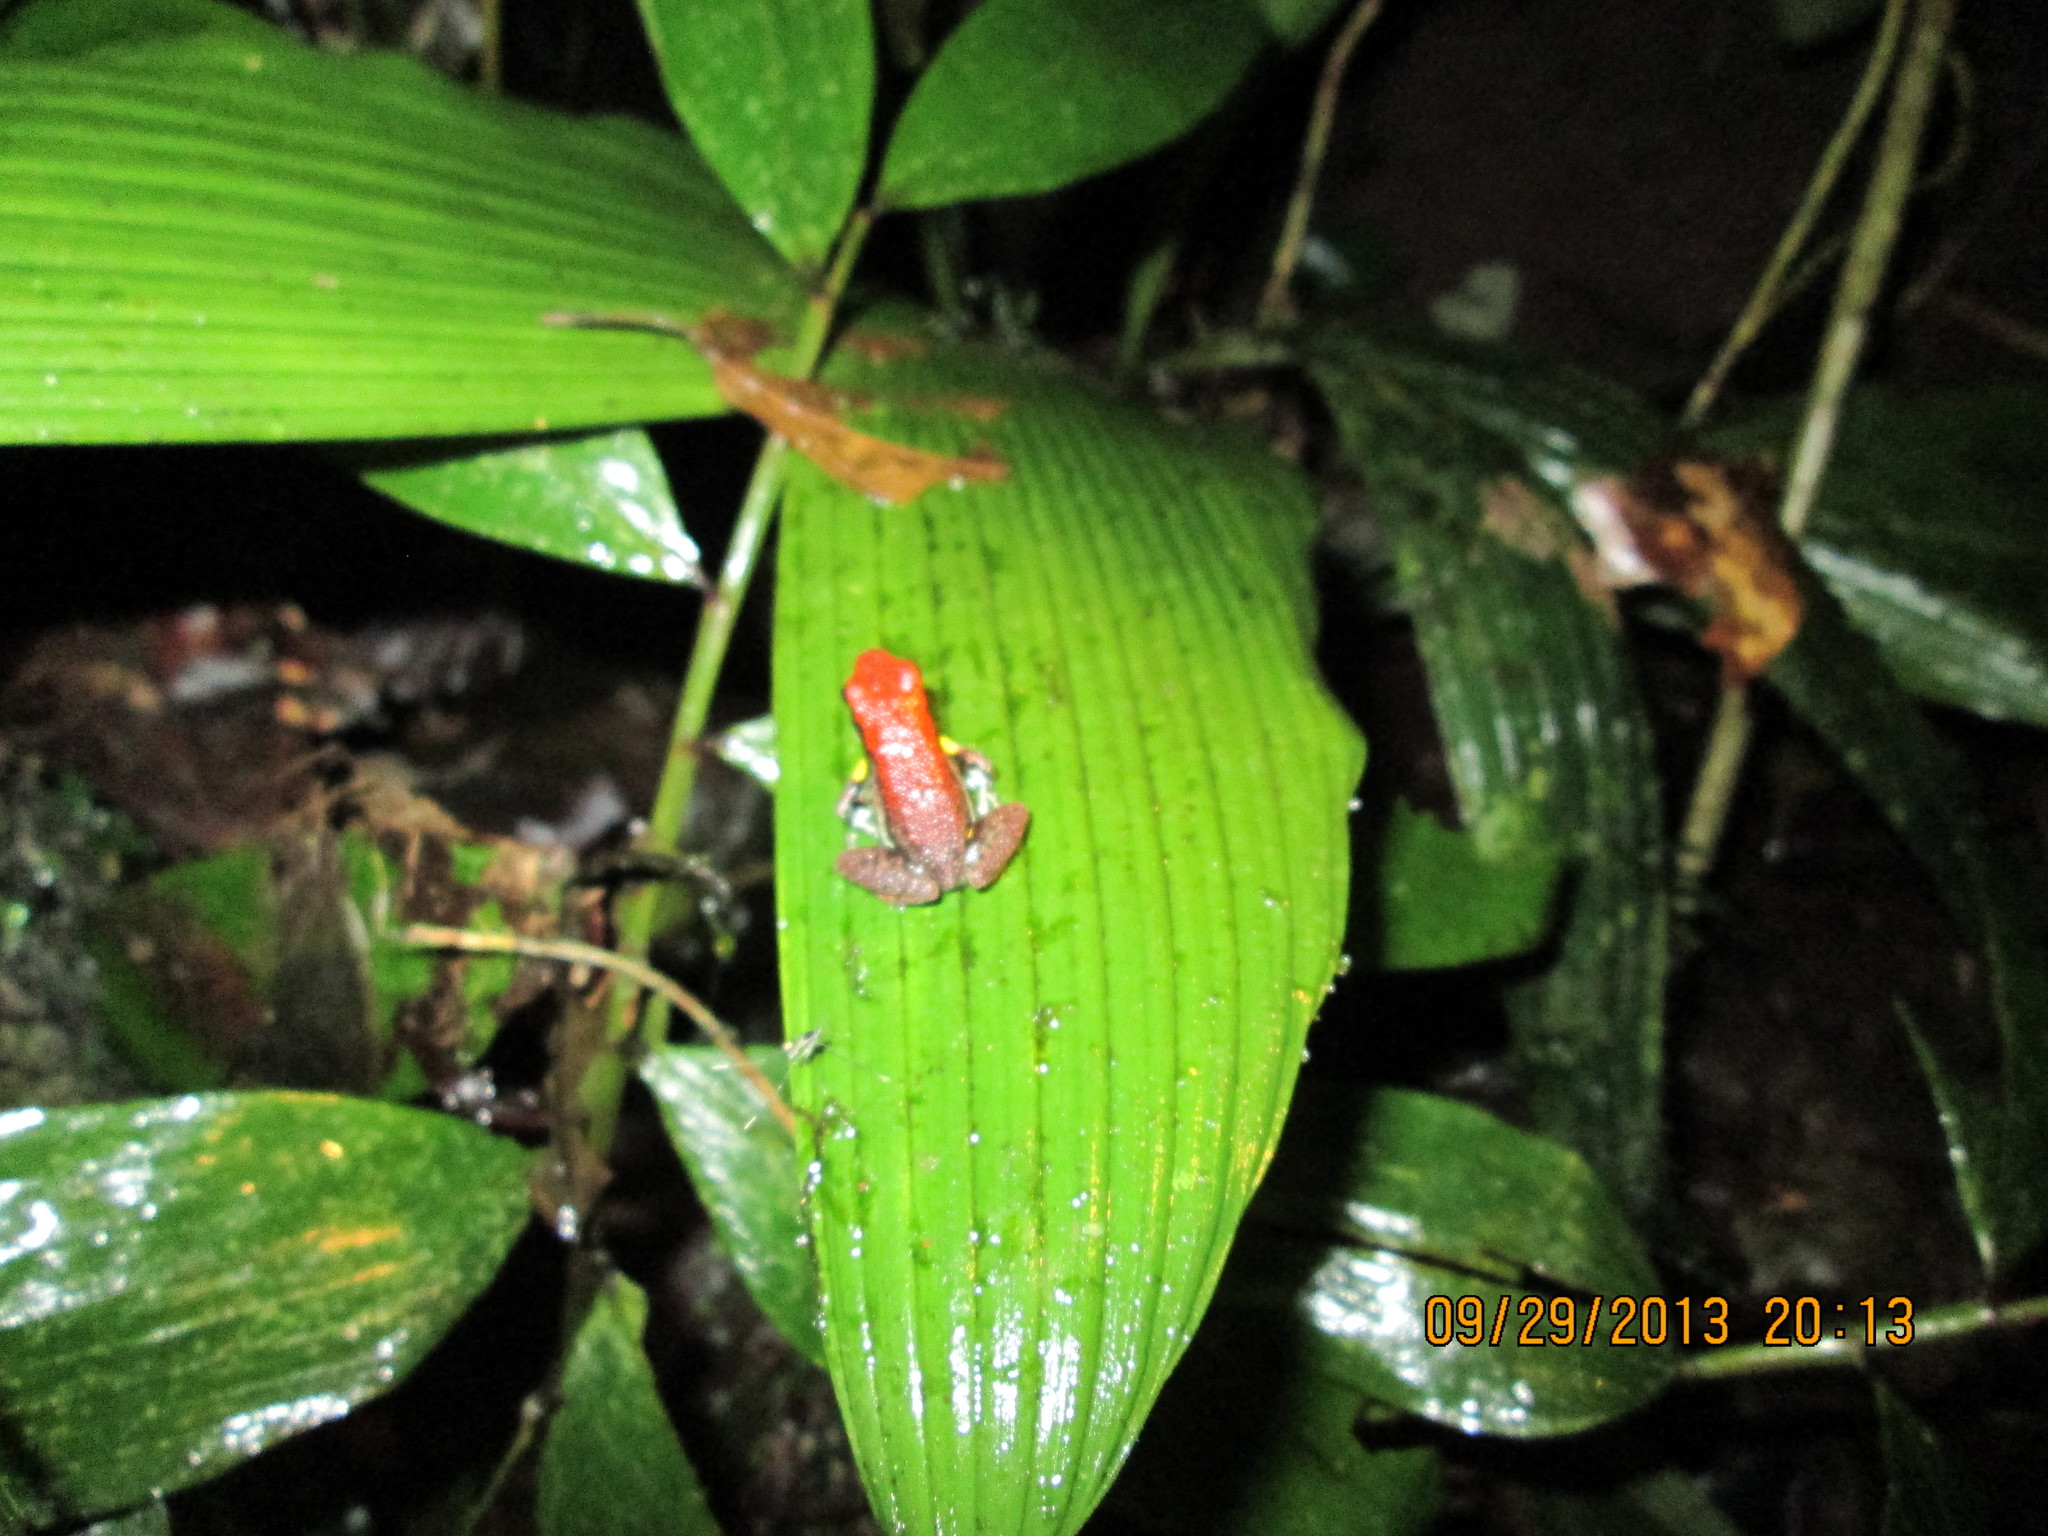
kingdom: Animalia
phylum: Chordata
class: Amphibia
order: Anura
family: Dendrobatidae
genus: Ameerega
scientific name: Ameerega bilinguis
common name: Ecuadorean poison frog
